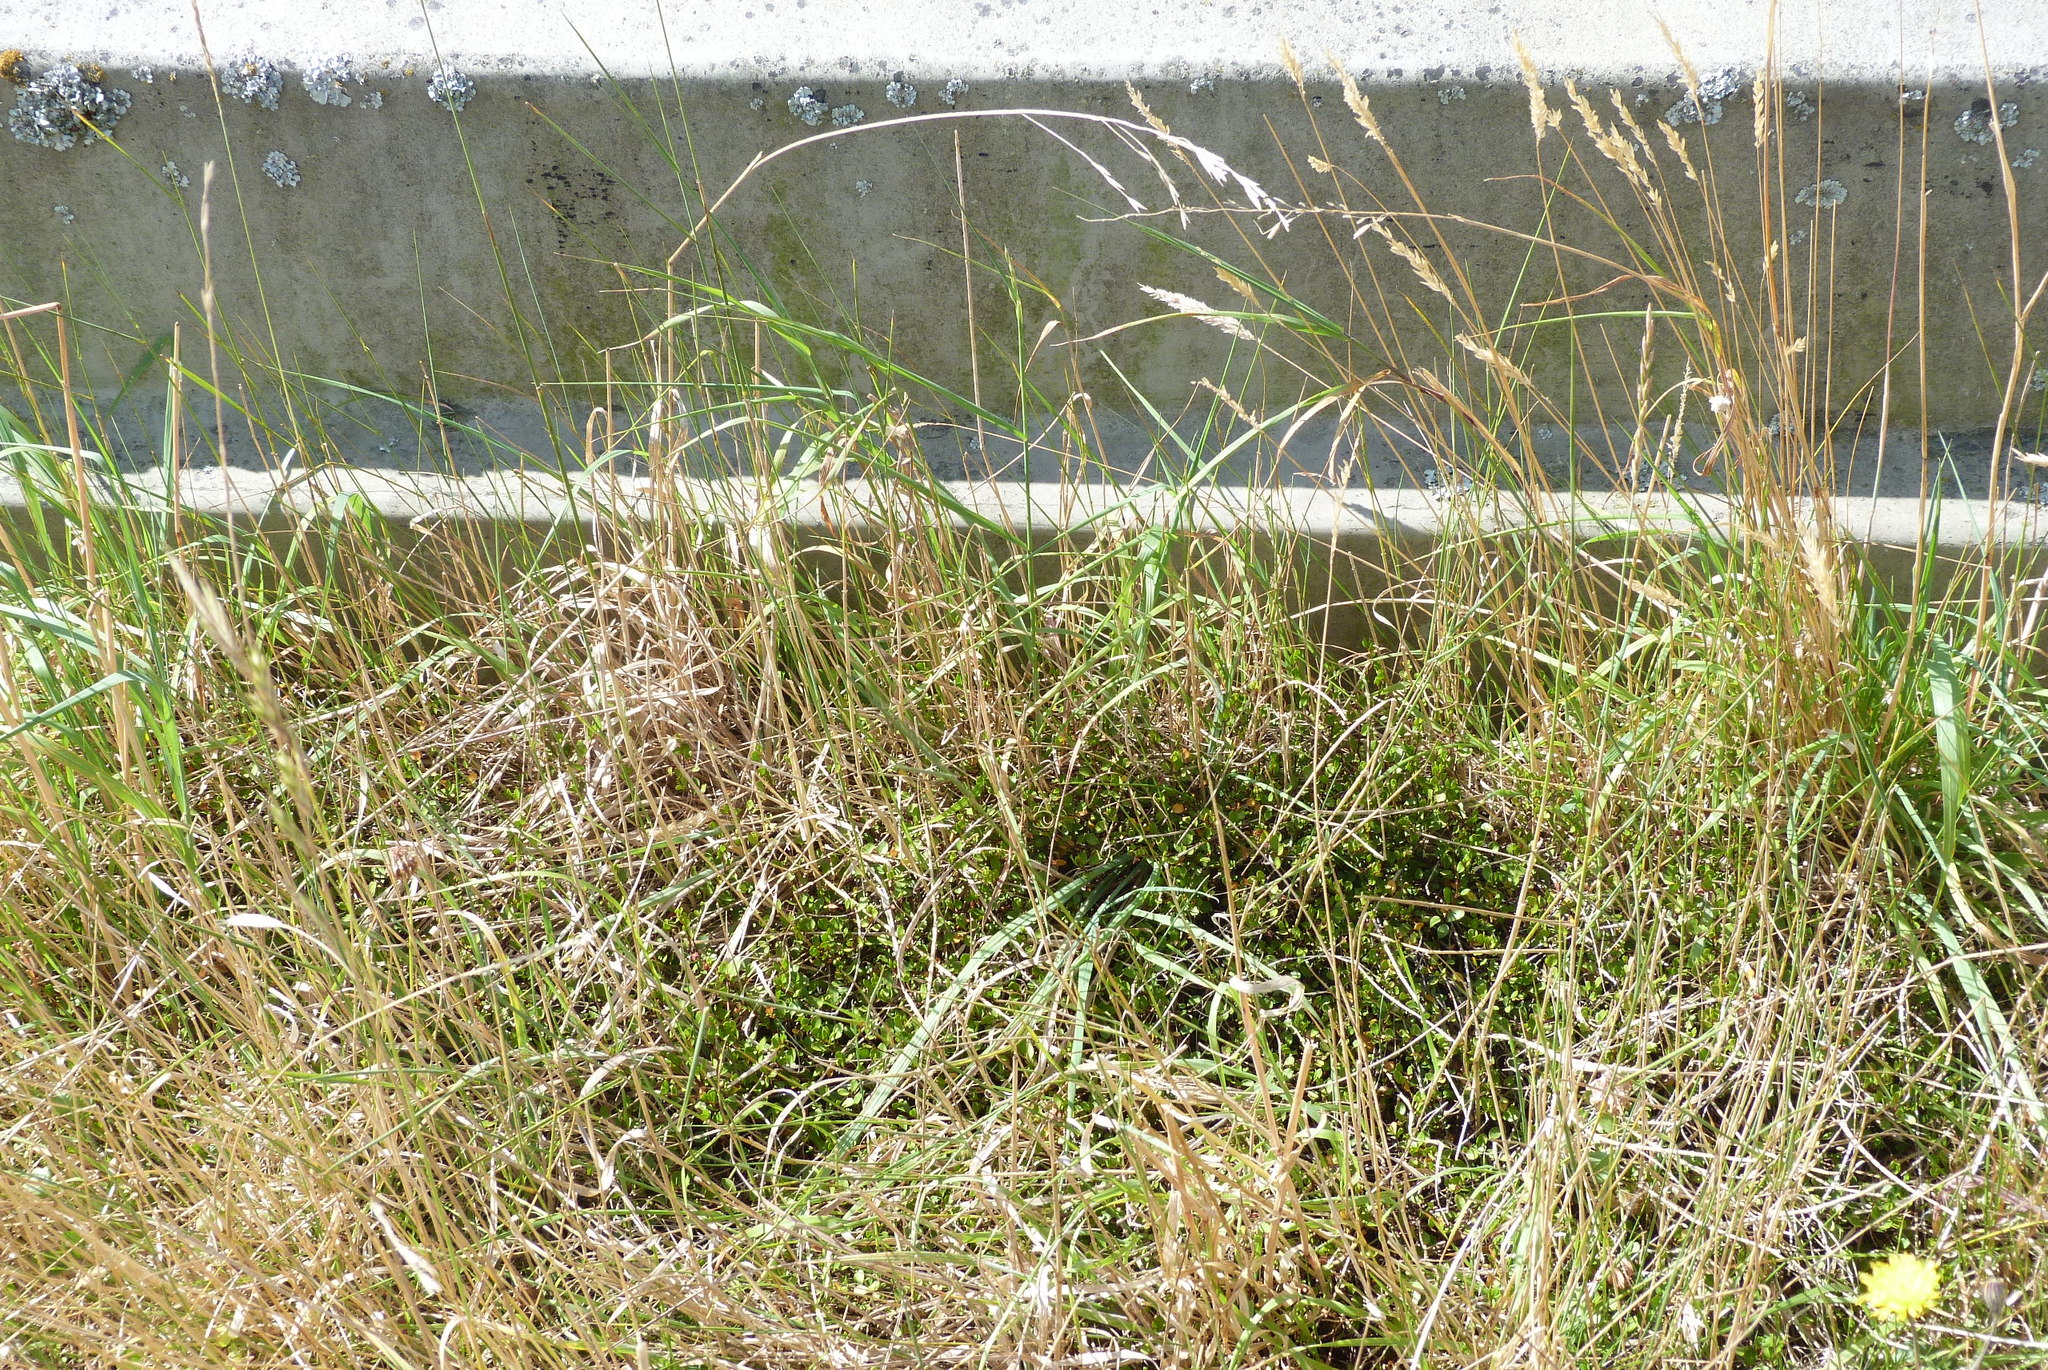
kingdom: Plantae
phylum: Tracheophyta
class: Magnoliopsida
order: Caryophyllales
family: Polygonaceae
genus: Muehlenbeckia
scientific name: Muehlenbeckia axillaris
